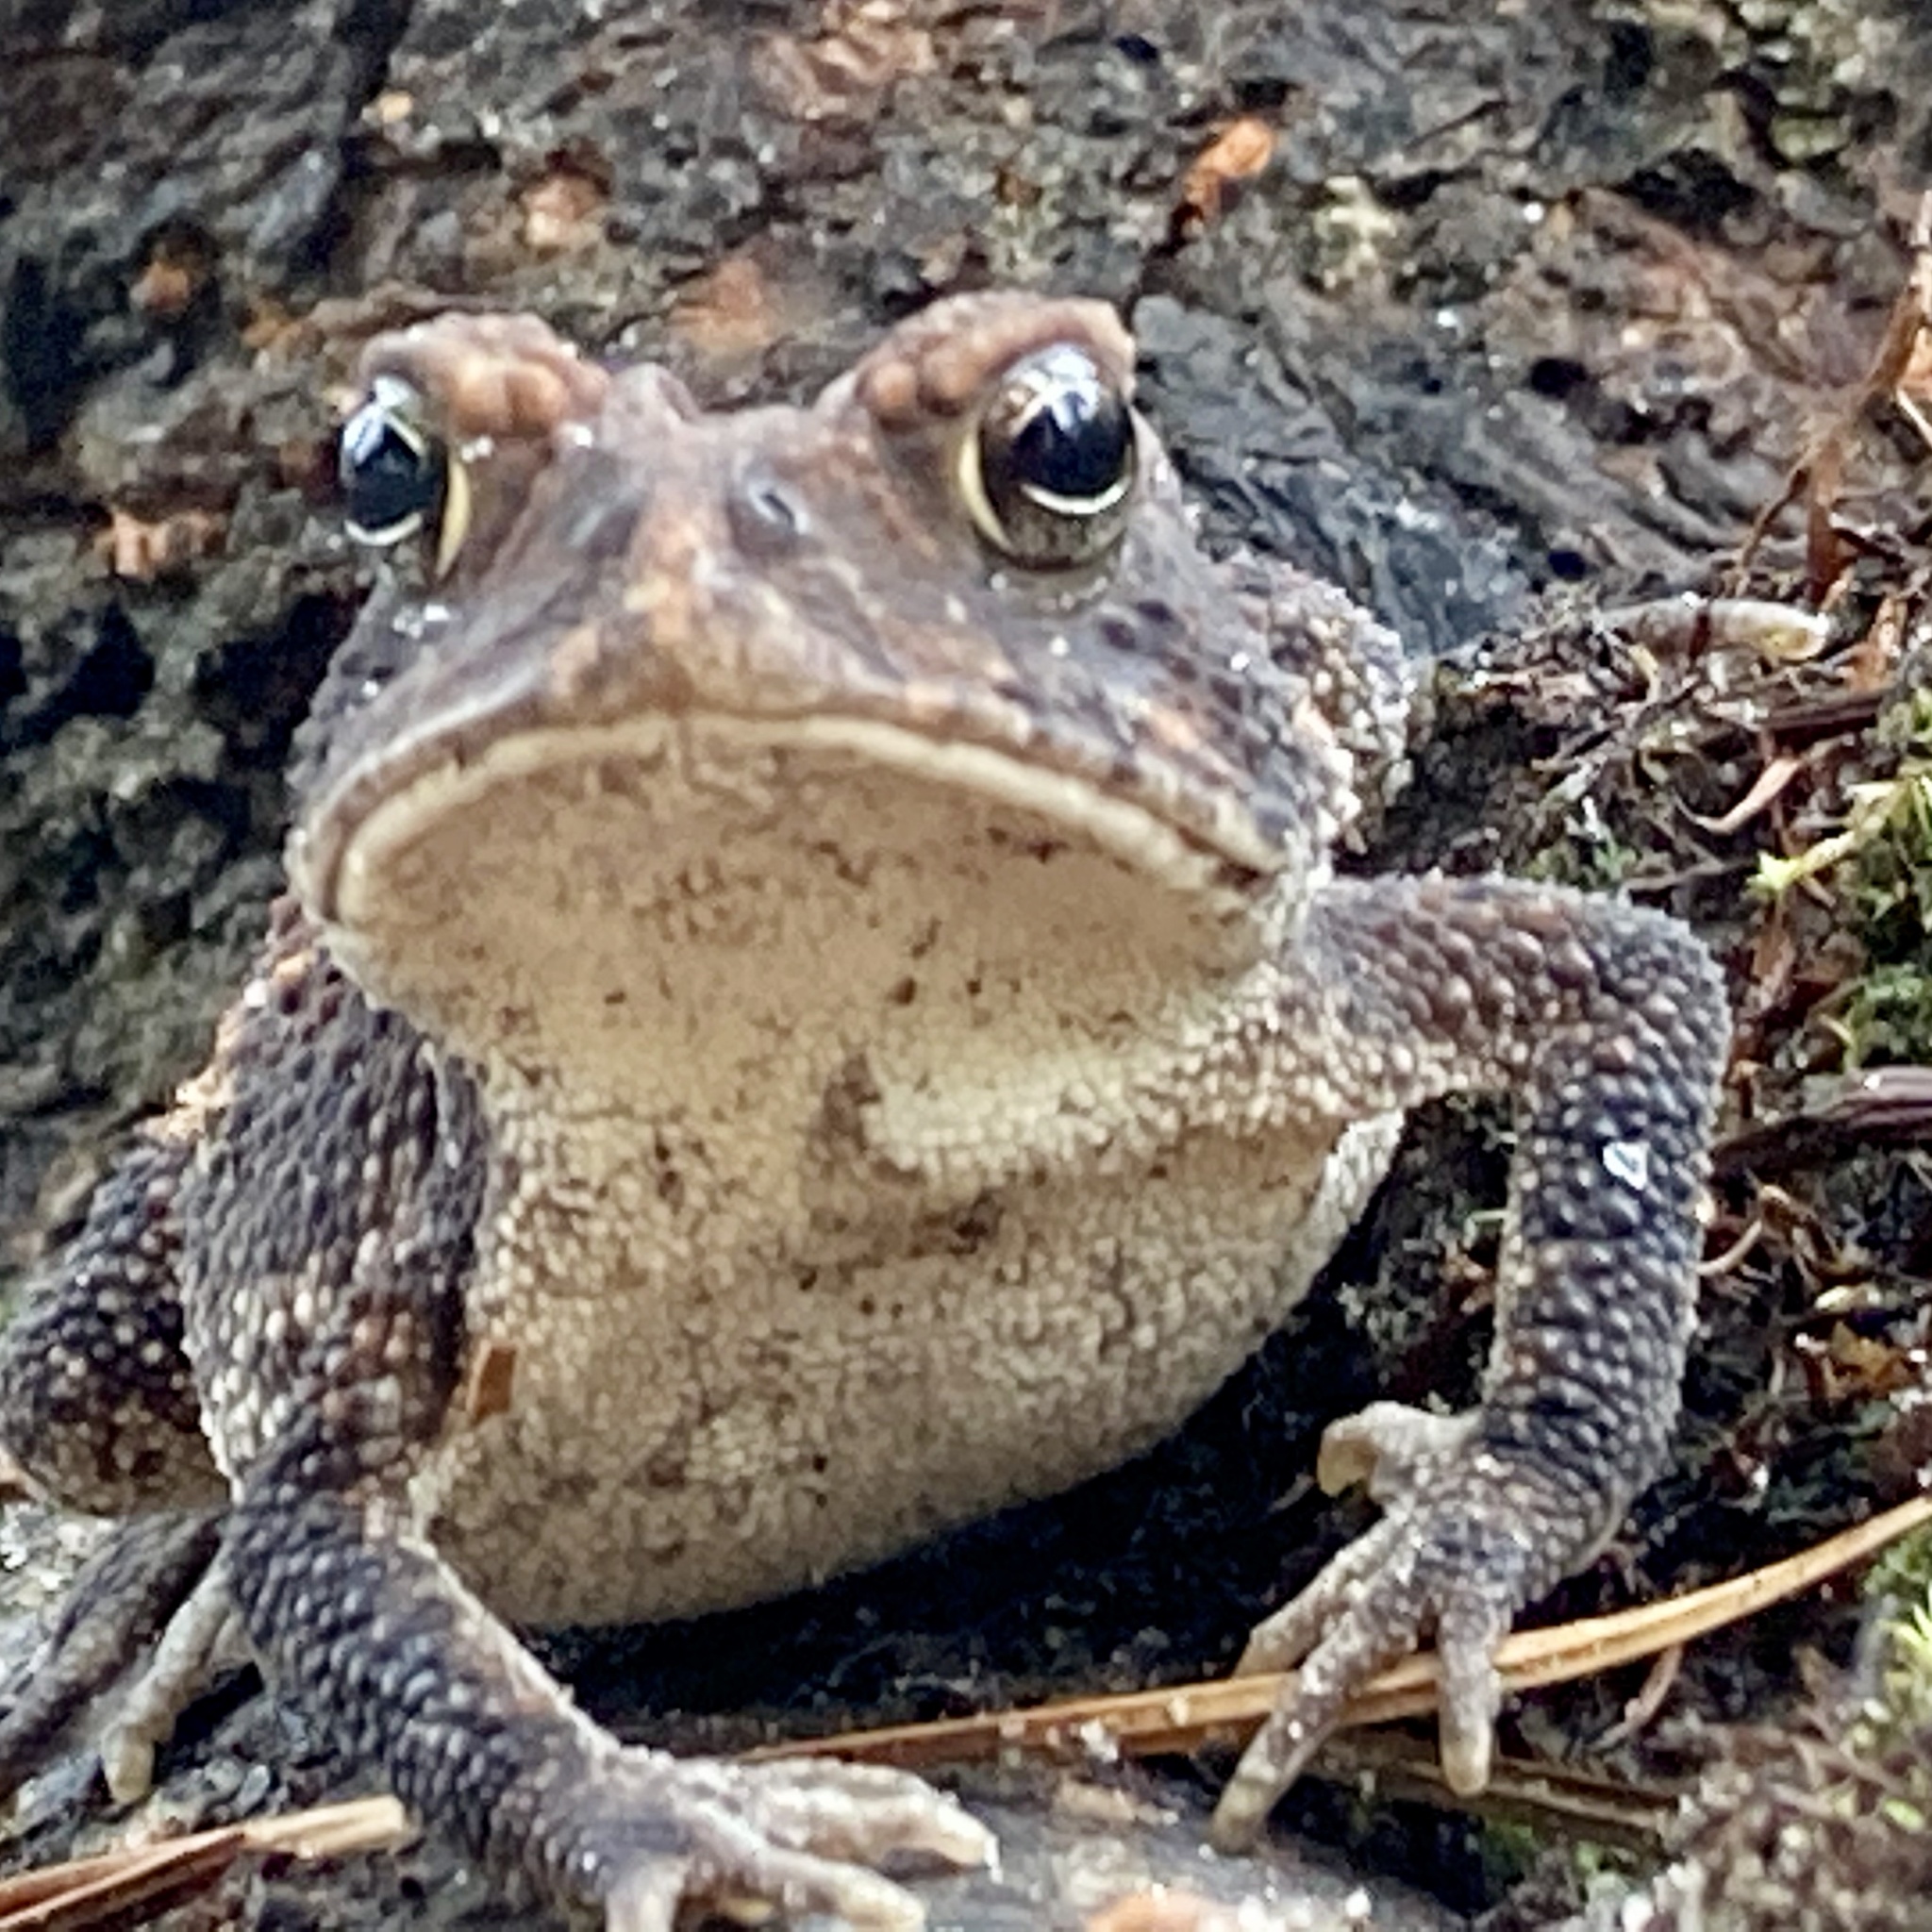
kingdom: Animalia
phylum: Chordata
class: Amphibia
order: Anura
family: Bufonidae
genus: Anaxyrus
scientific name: Anaxyrus terrestris
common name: Southern toad
